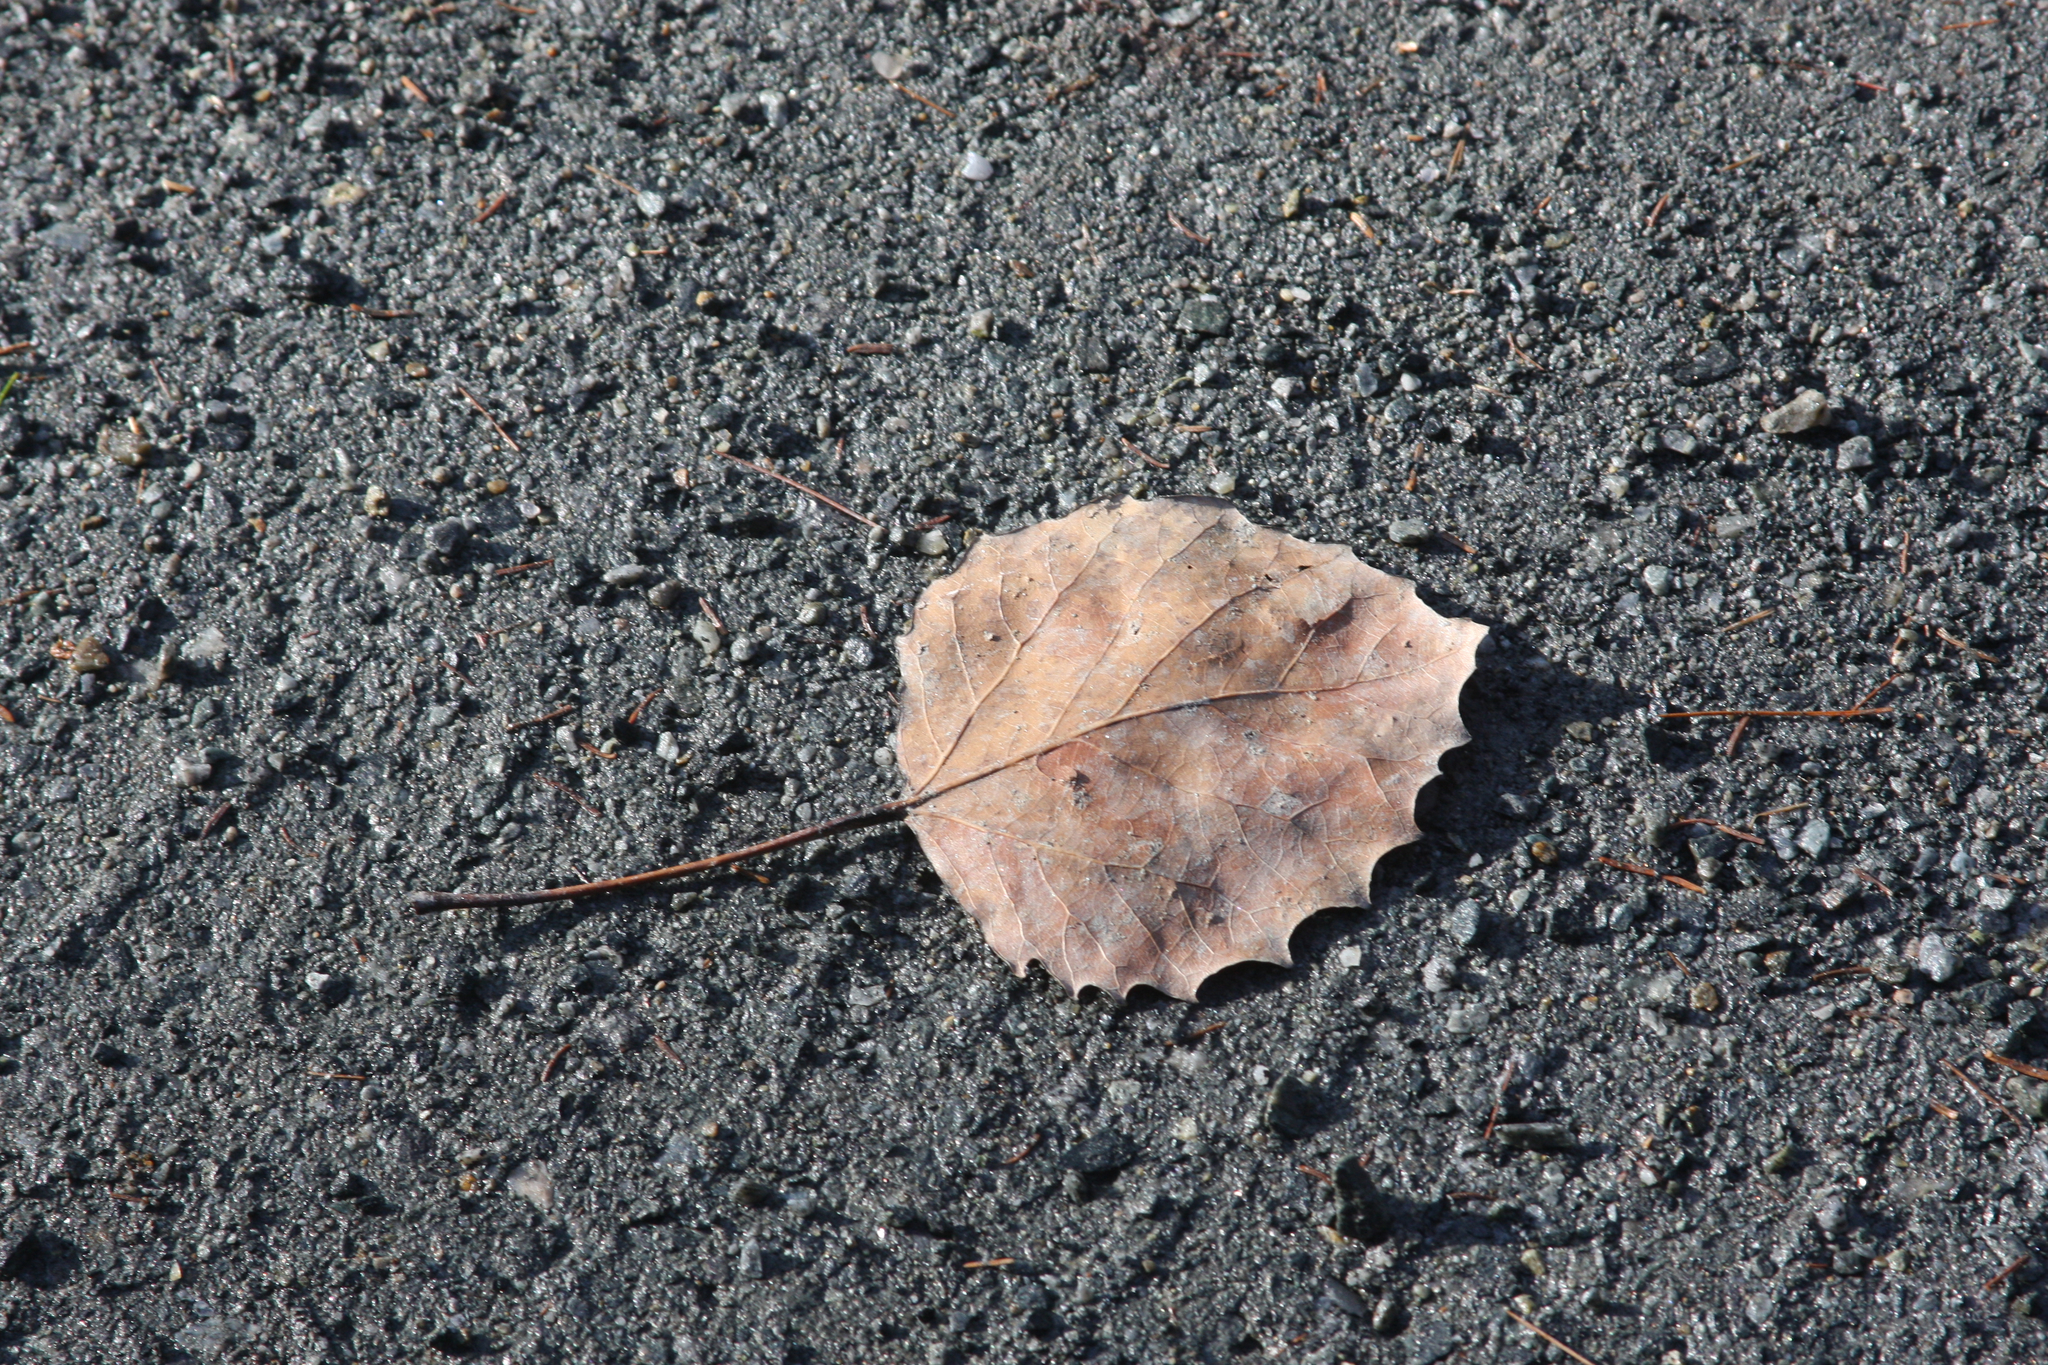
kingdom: Plantae
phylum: Tracheophyta
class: Magnoliopsida
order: Malpighiales
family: Salicaceae
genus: Populus
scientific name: Populus grandidentata
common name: Bigtooth aspen
